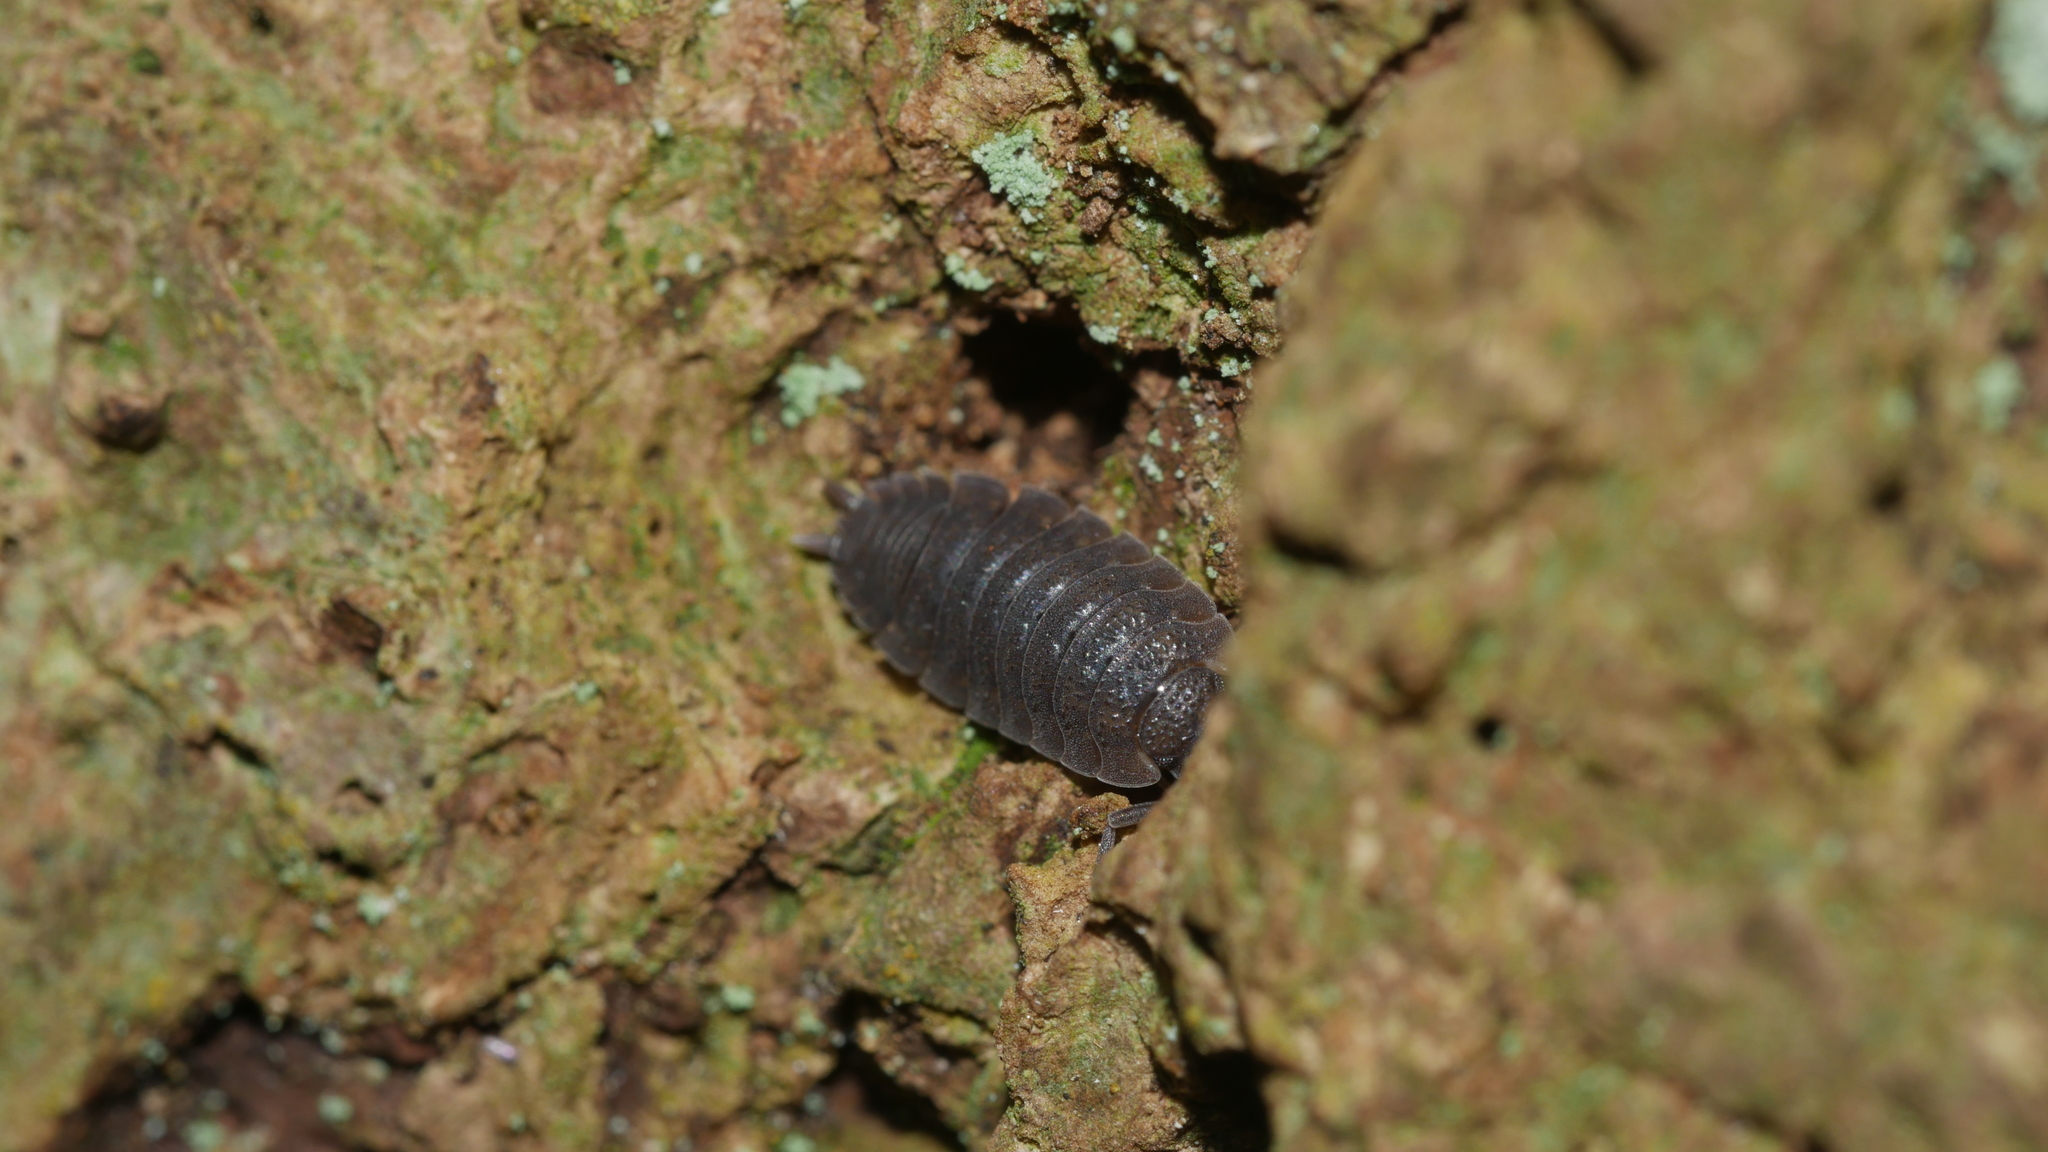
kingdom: Animalia
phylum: Arthropoda
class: Malacostraca
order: Isopoda
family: Porcellionidae
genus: Porcellio
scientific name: Porcellio scaber
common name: Common rough woodlouse
